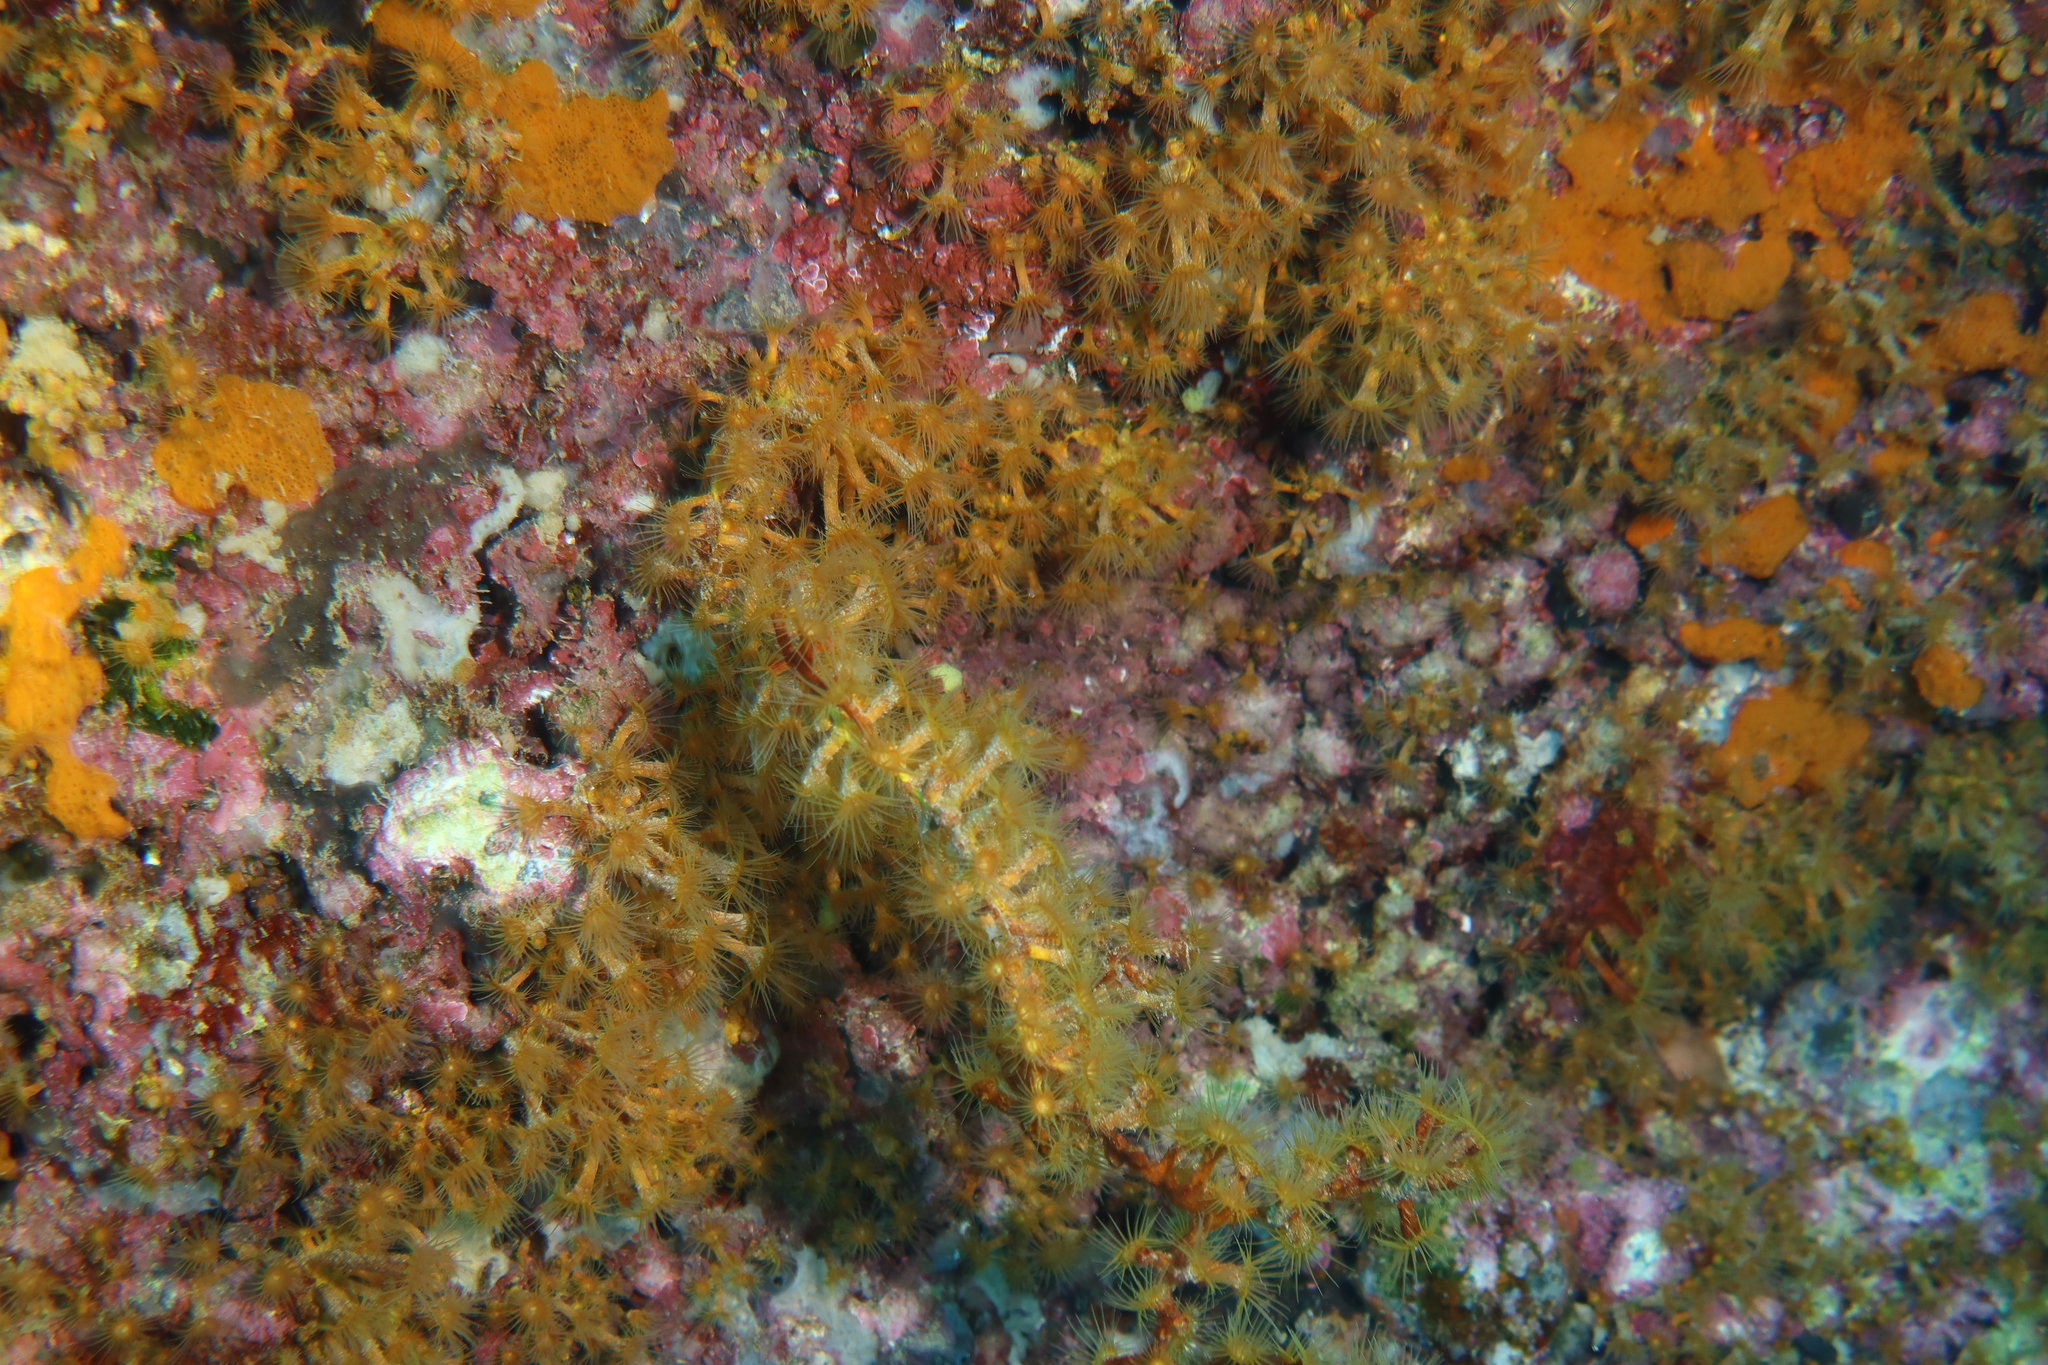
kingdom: Animalia
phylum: Cnidaria
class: Anthozoa
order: Zoantharia
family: Parazoanthidae
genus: Antipathozoanthus
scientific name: Antipathozoanthus macaronesicus
